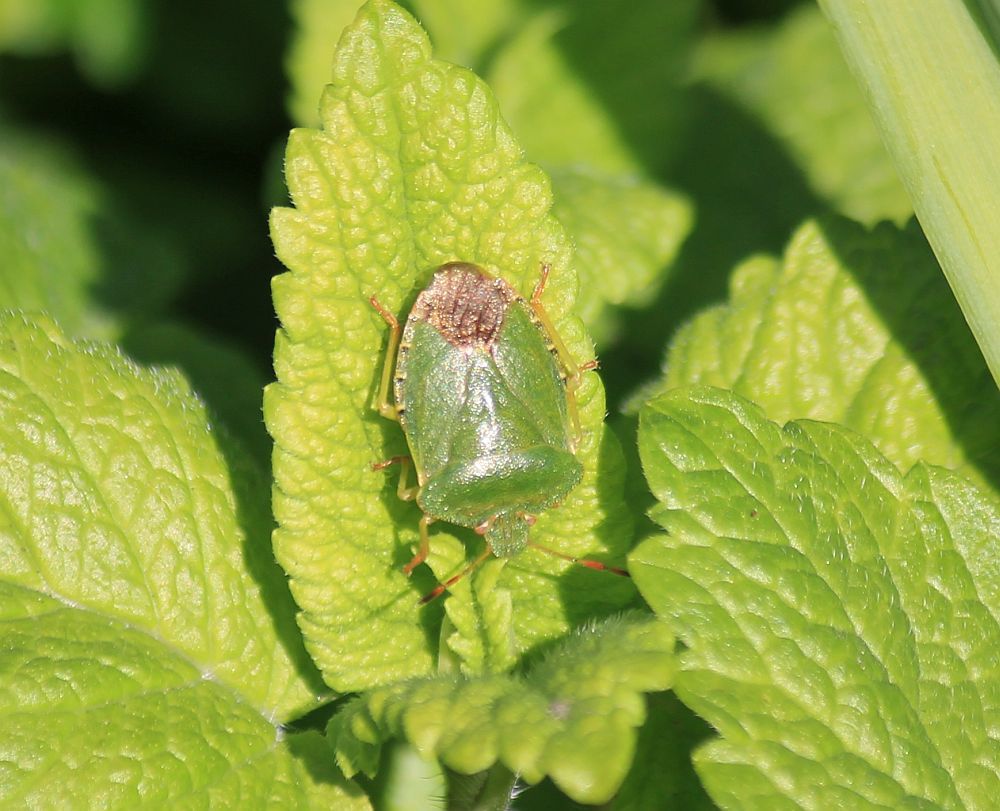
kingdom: Animalia
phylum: Arthropoda
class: Insecta
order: Hemiptera
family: Pentatomidae
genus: Palomena
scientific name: Palomena prasina
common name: Green shieldbug
